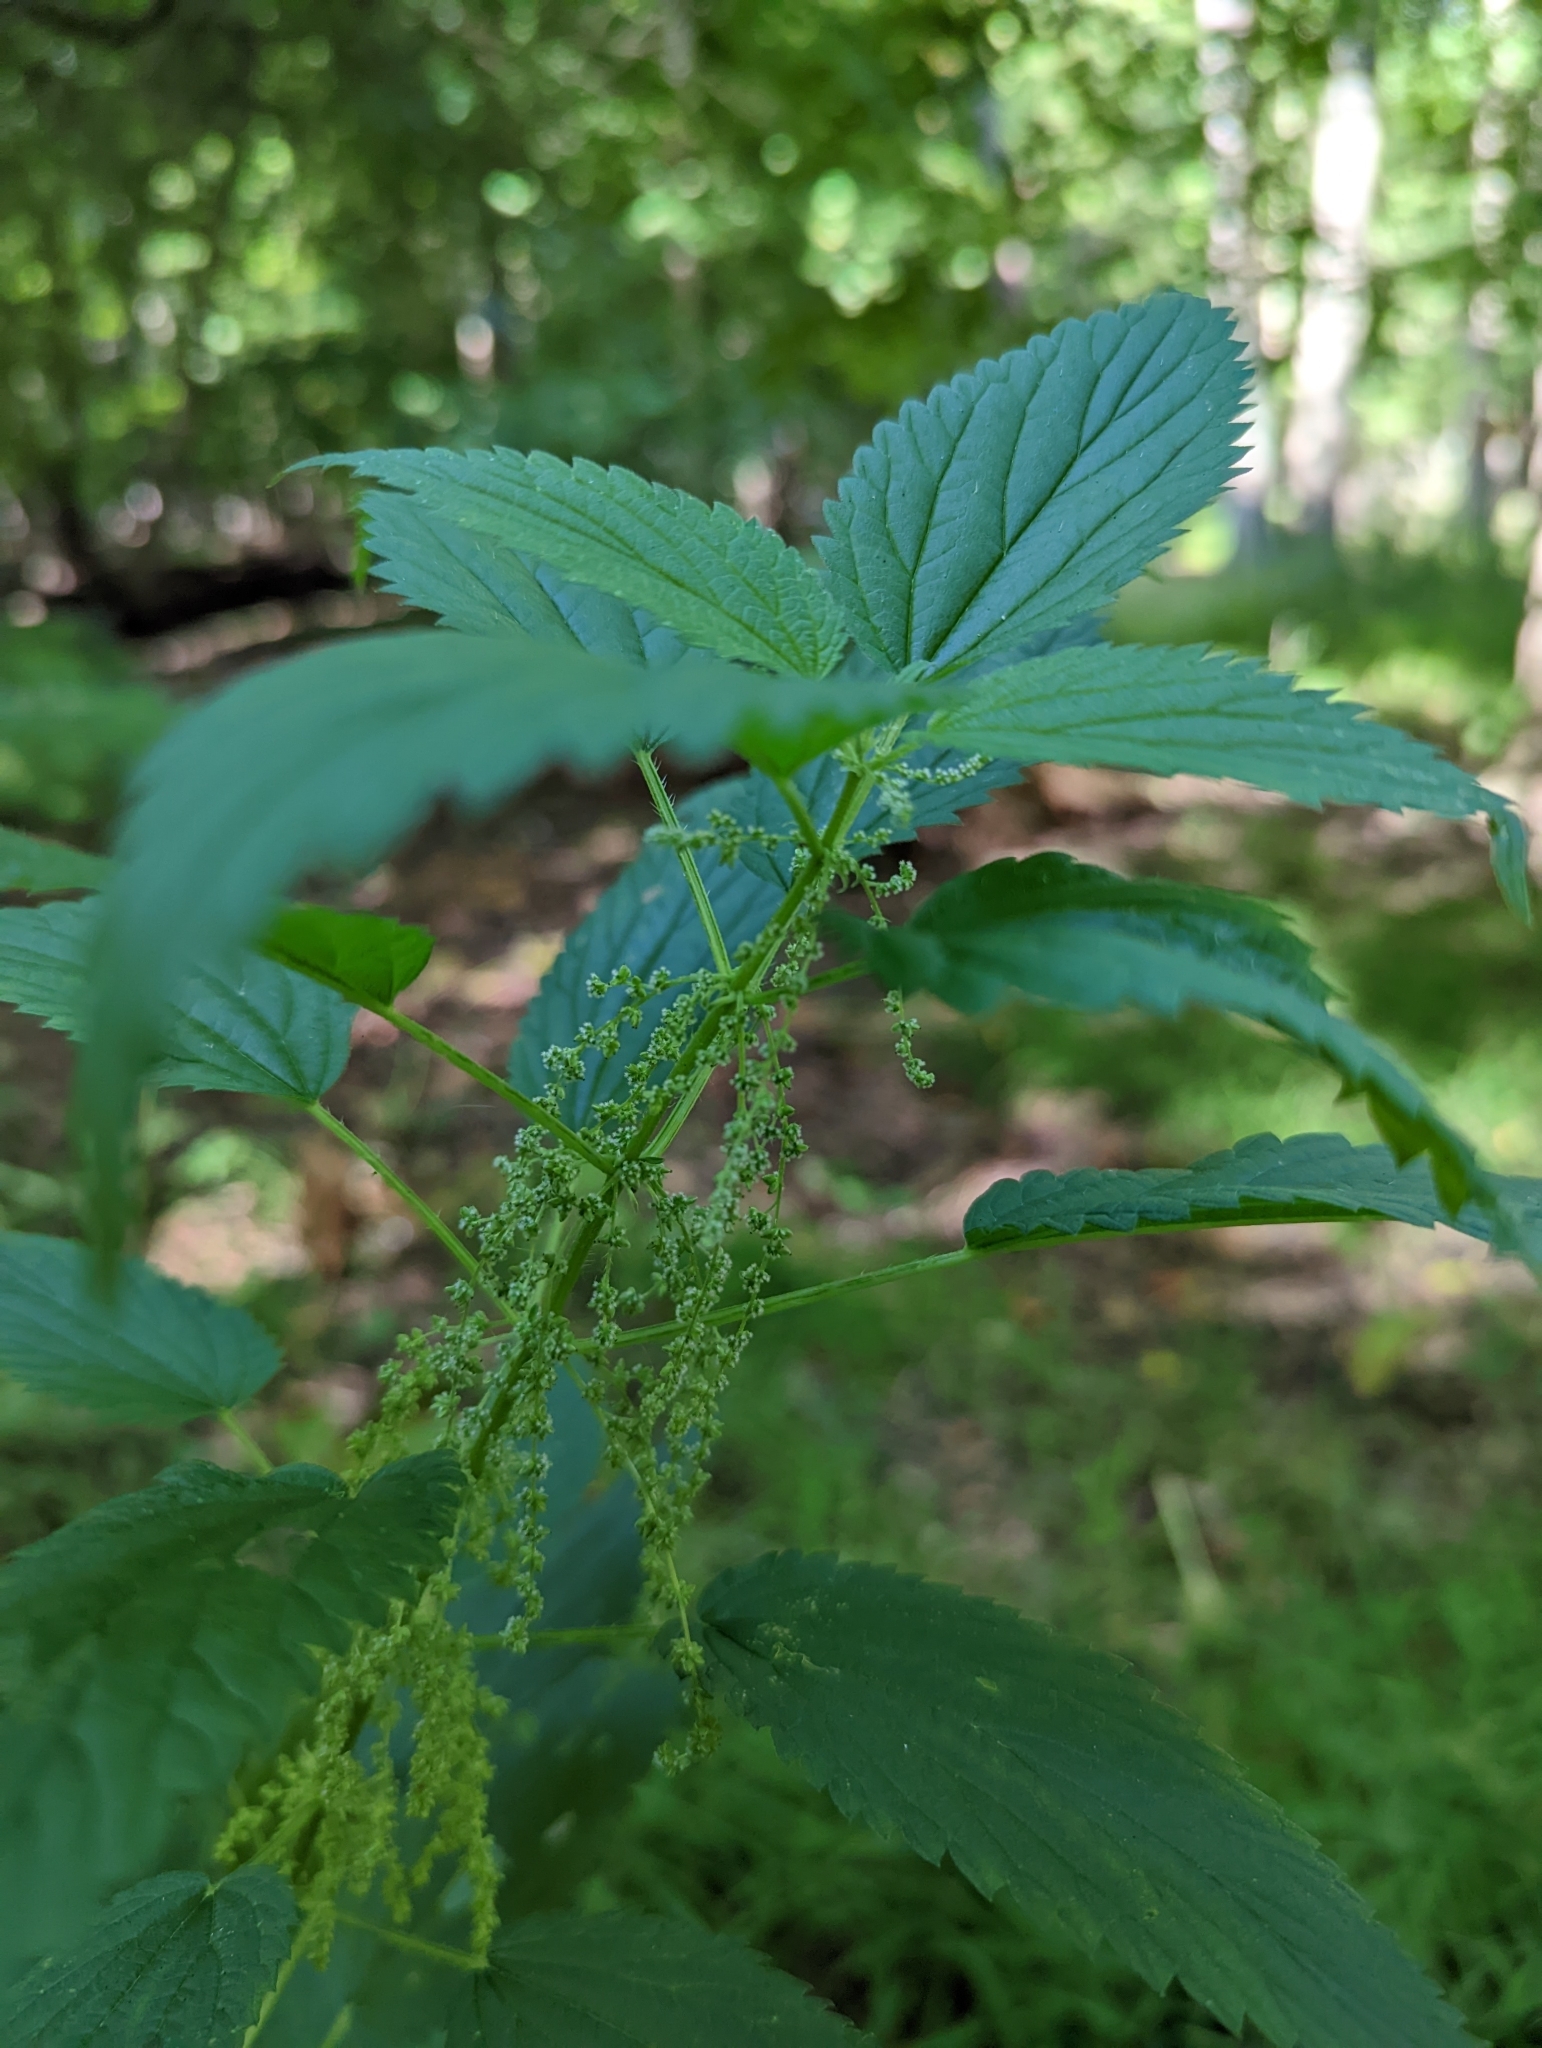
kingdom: Plantae
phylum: Tracheophyta
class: Magnoliopsida
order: Rosales
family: Urticaceae
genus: Urtica
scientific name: Urtica dioica
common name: Common nettle
